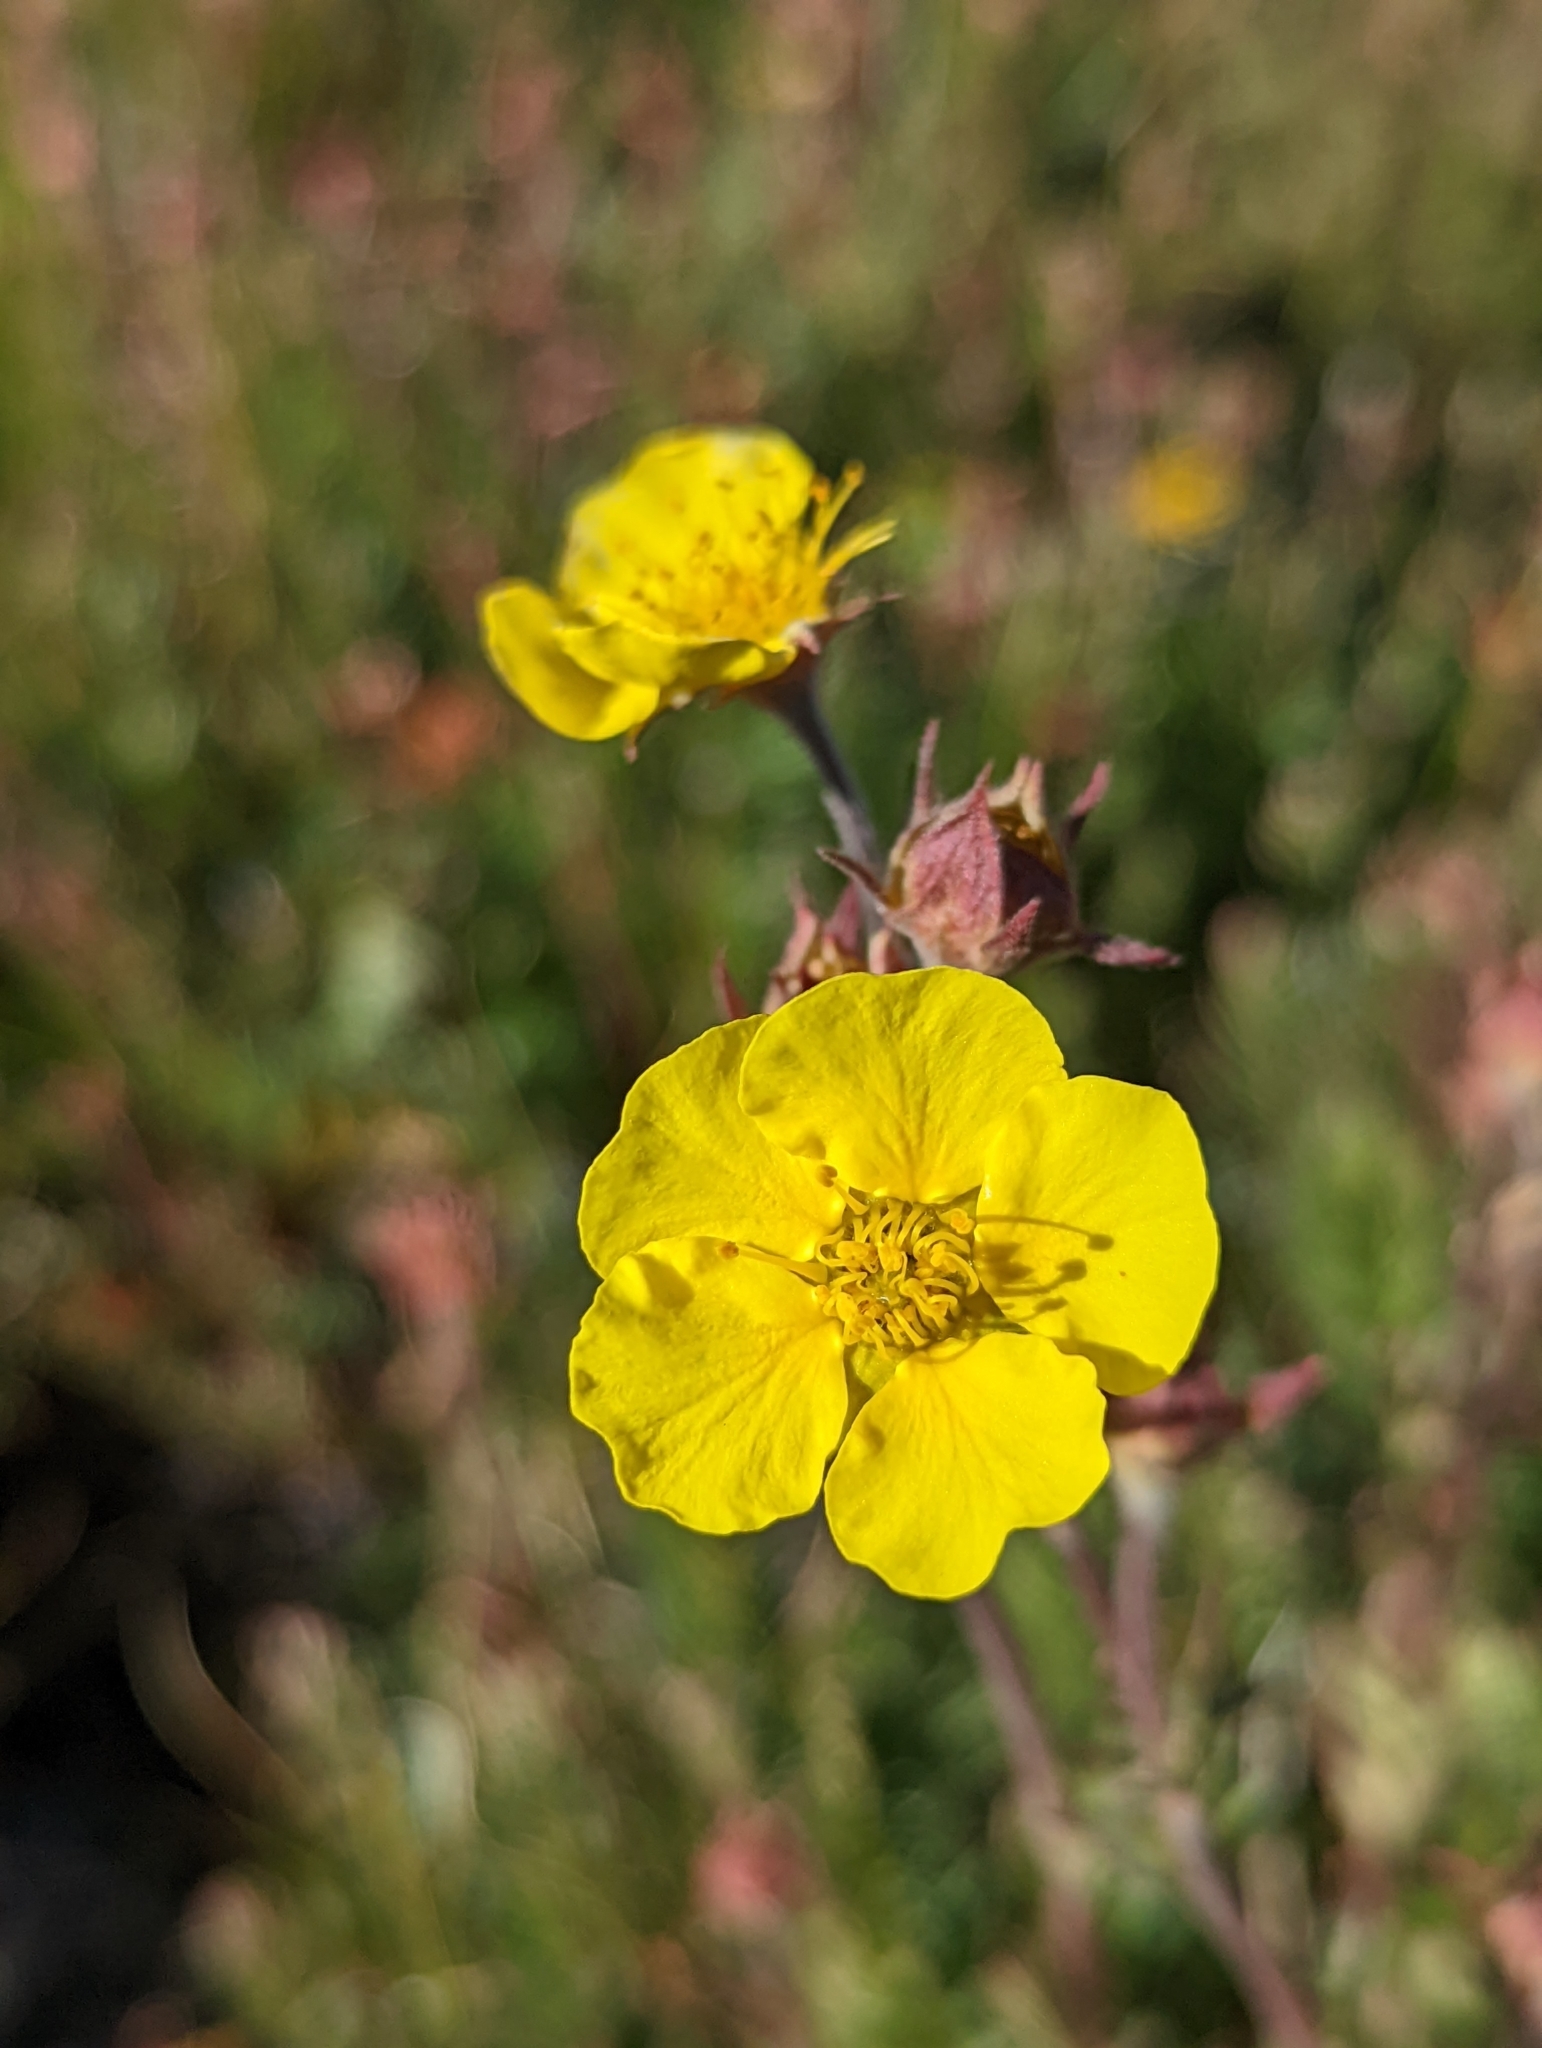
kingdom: Plantae
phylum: Tracheophyta
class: Magnoliopsida
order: Rosales
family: Rosaceae
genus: Geum
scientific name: Geum rossii
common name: Alpine avens
